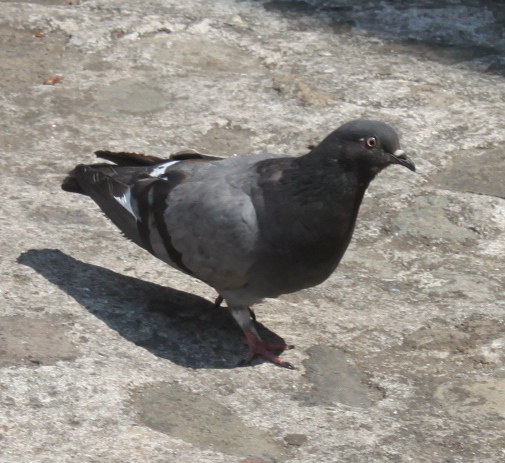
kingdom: Animalia
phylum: Chordata
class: Aves
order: Columbiformes
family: Columbidae
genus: Columba
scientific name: Columba livia
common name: Rock pigeon
